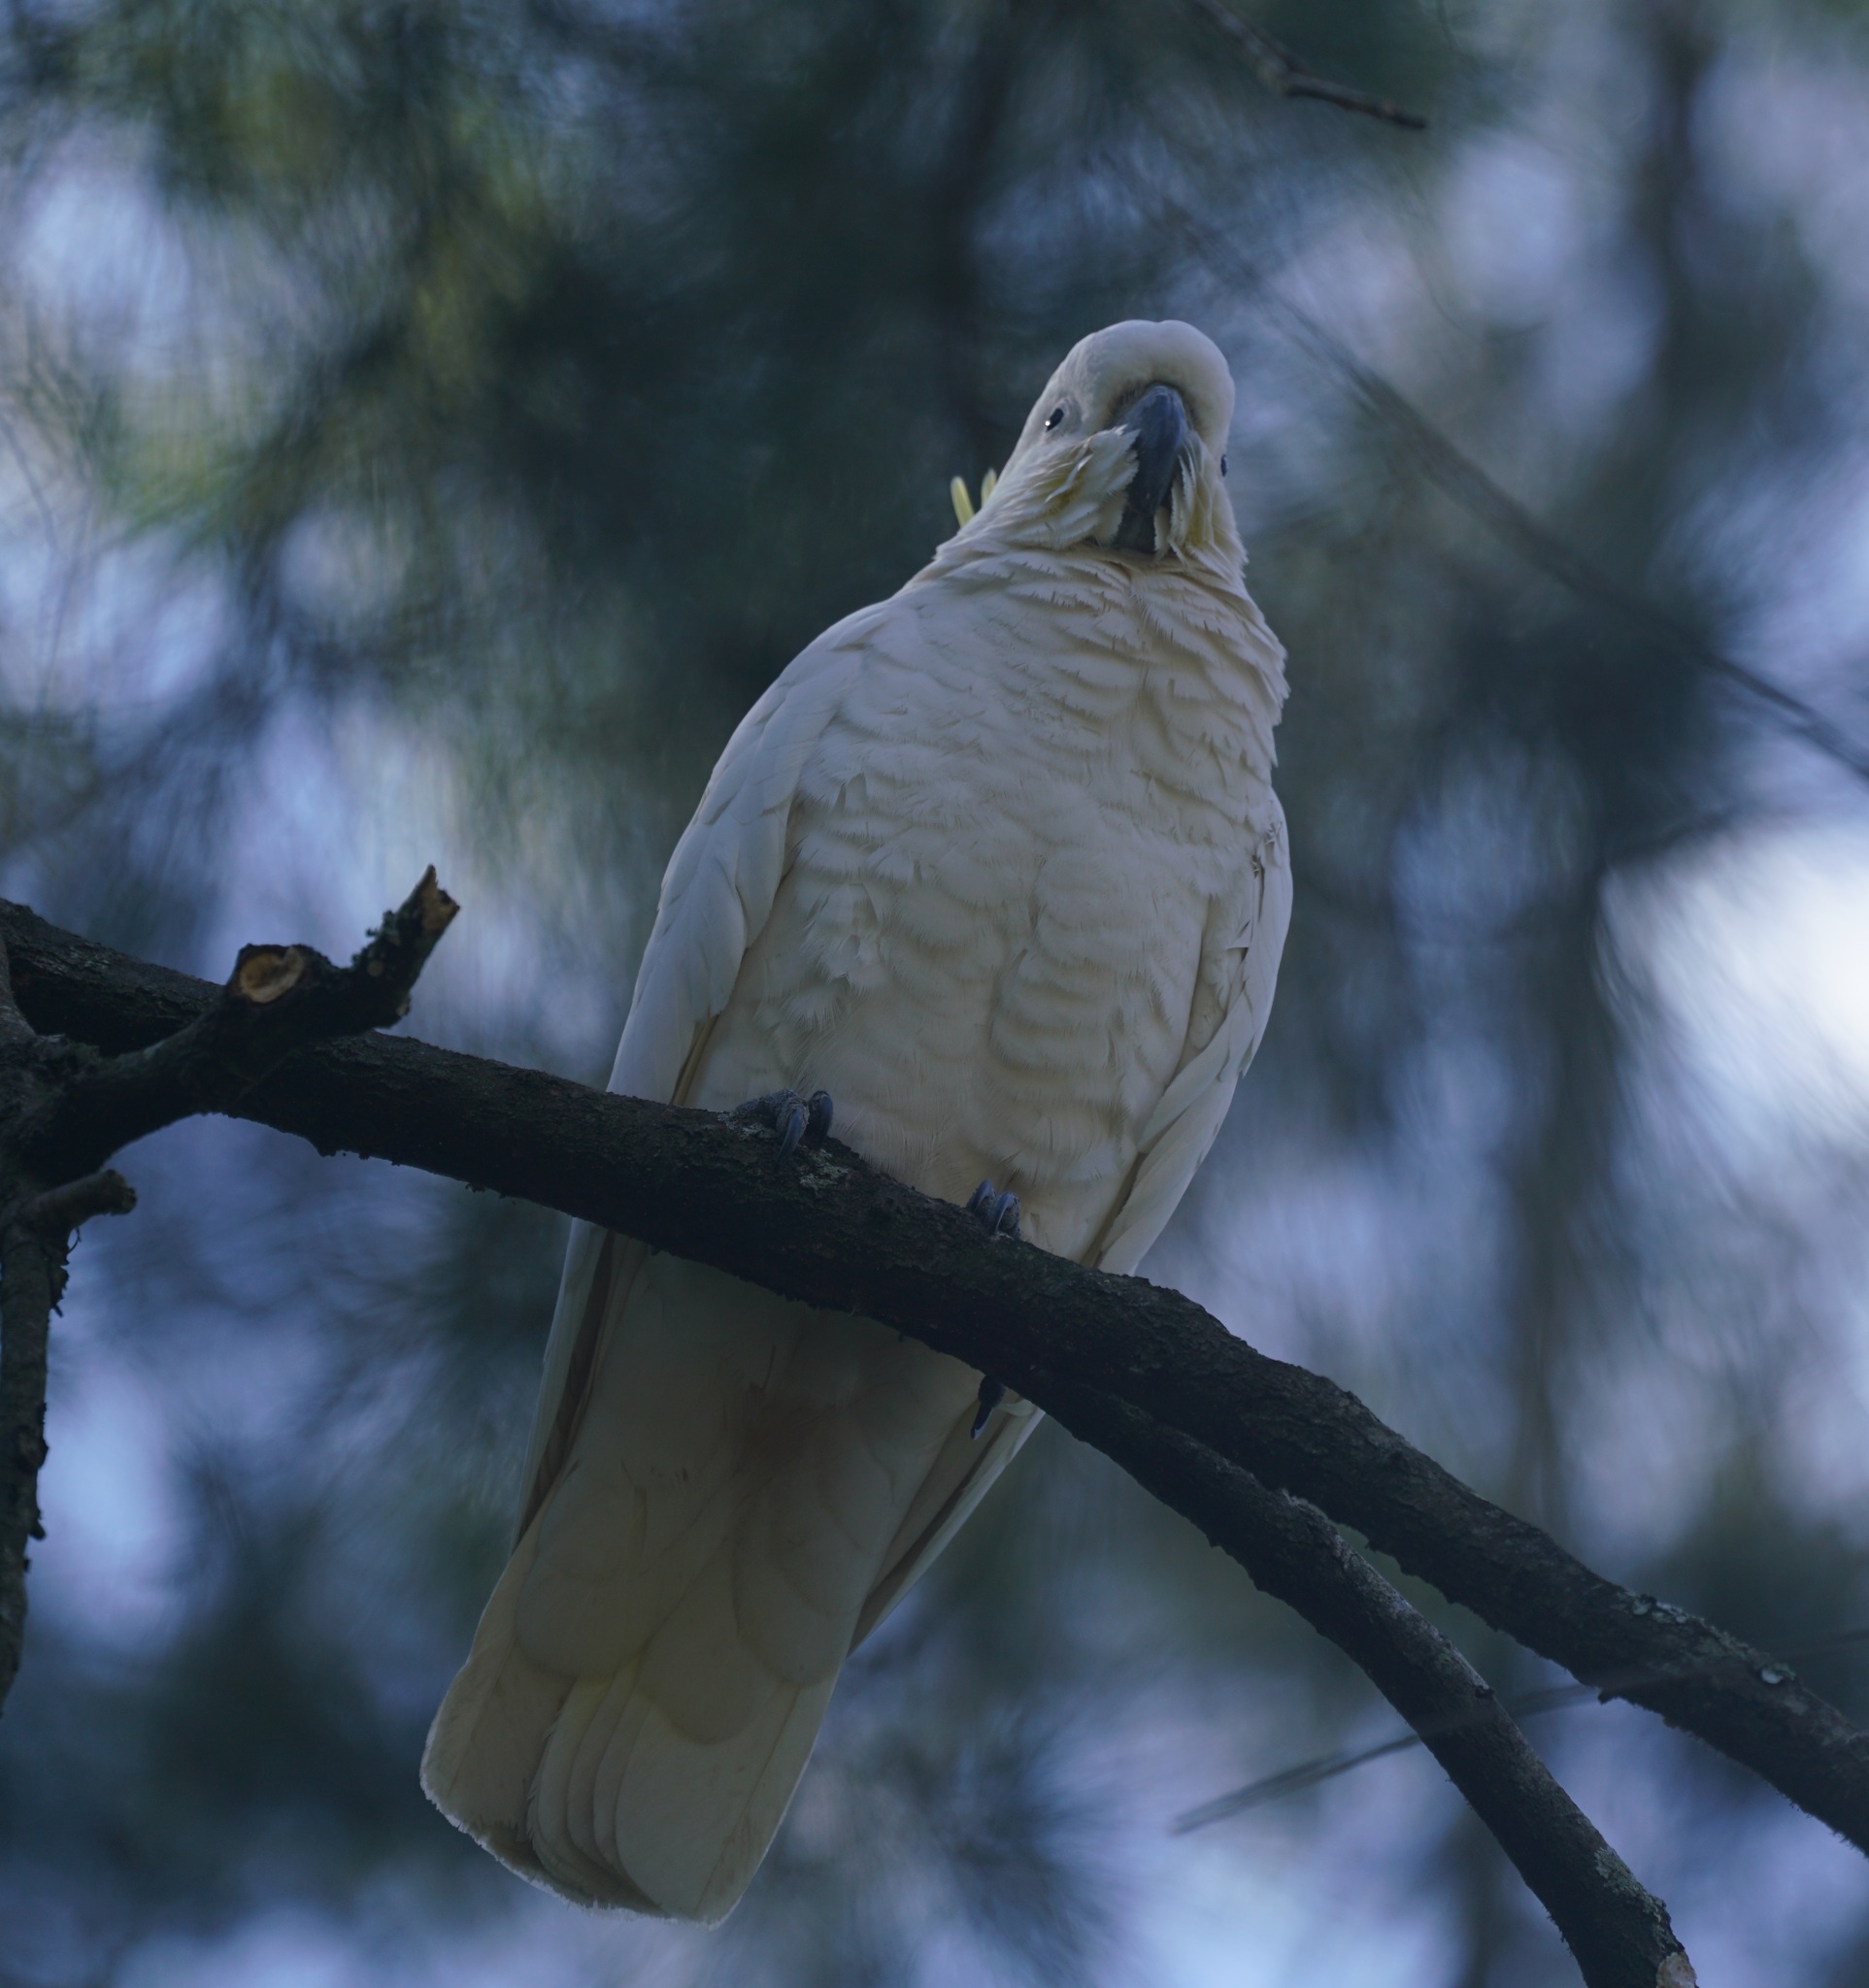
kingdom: Animalia
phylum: Chordata
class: Aves
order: Psittaciformes
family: Psittacidae
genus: Cacatua
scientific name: Cacatua galerita
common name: Sulphur-crested cockatoo
